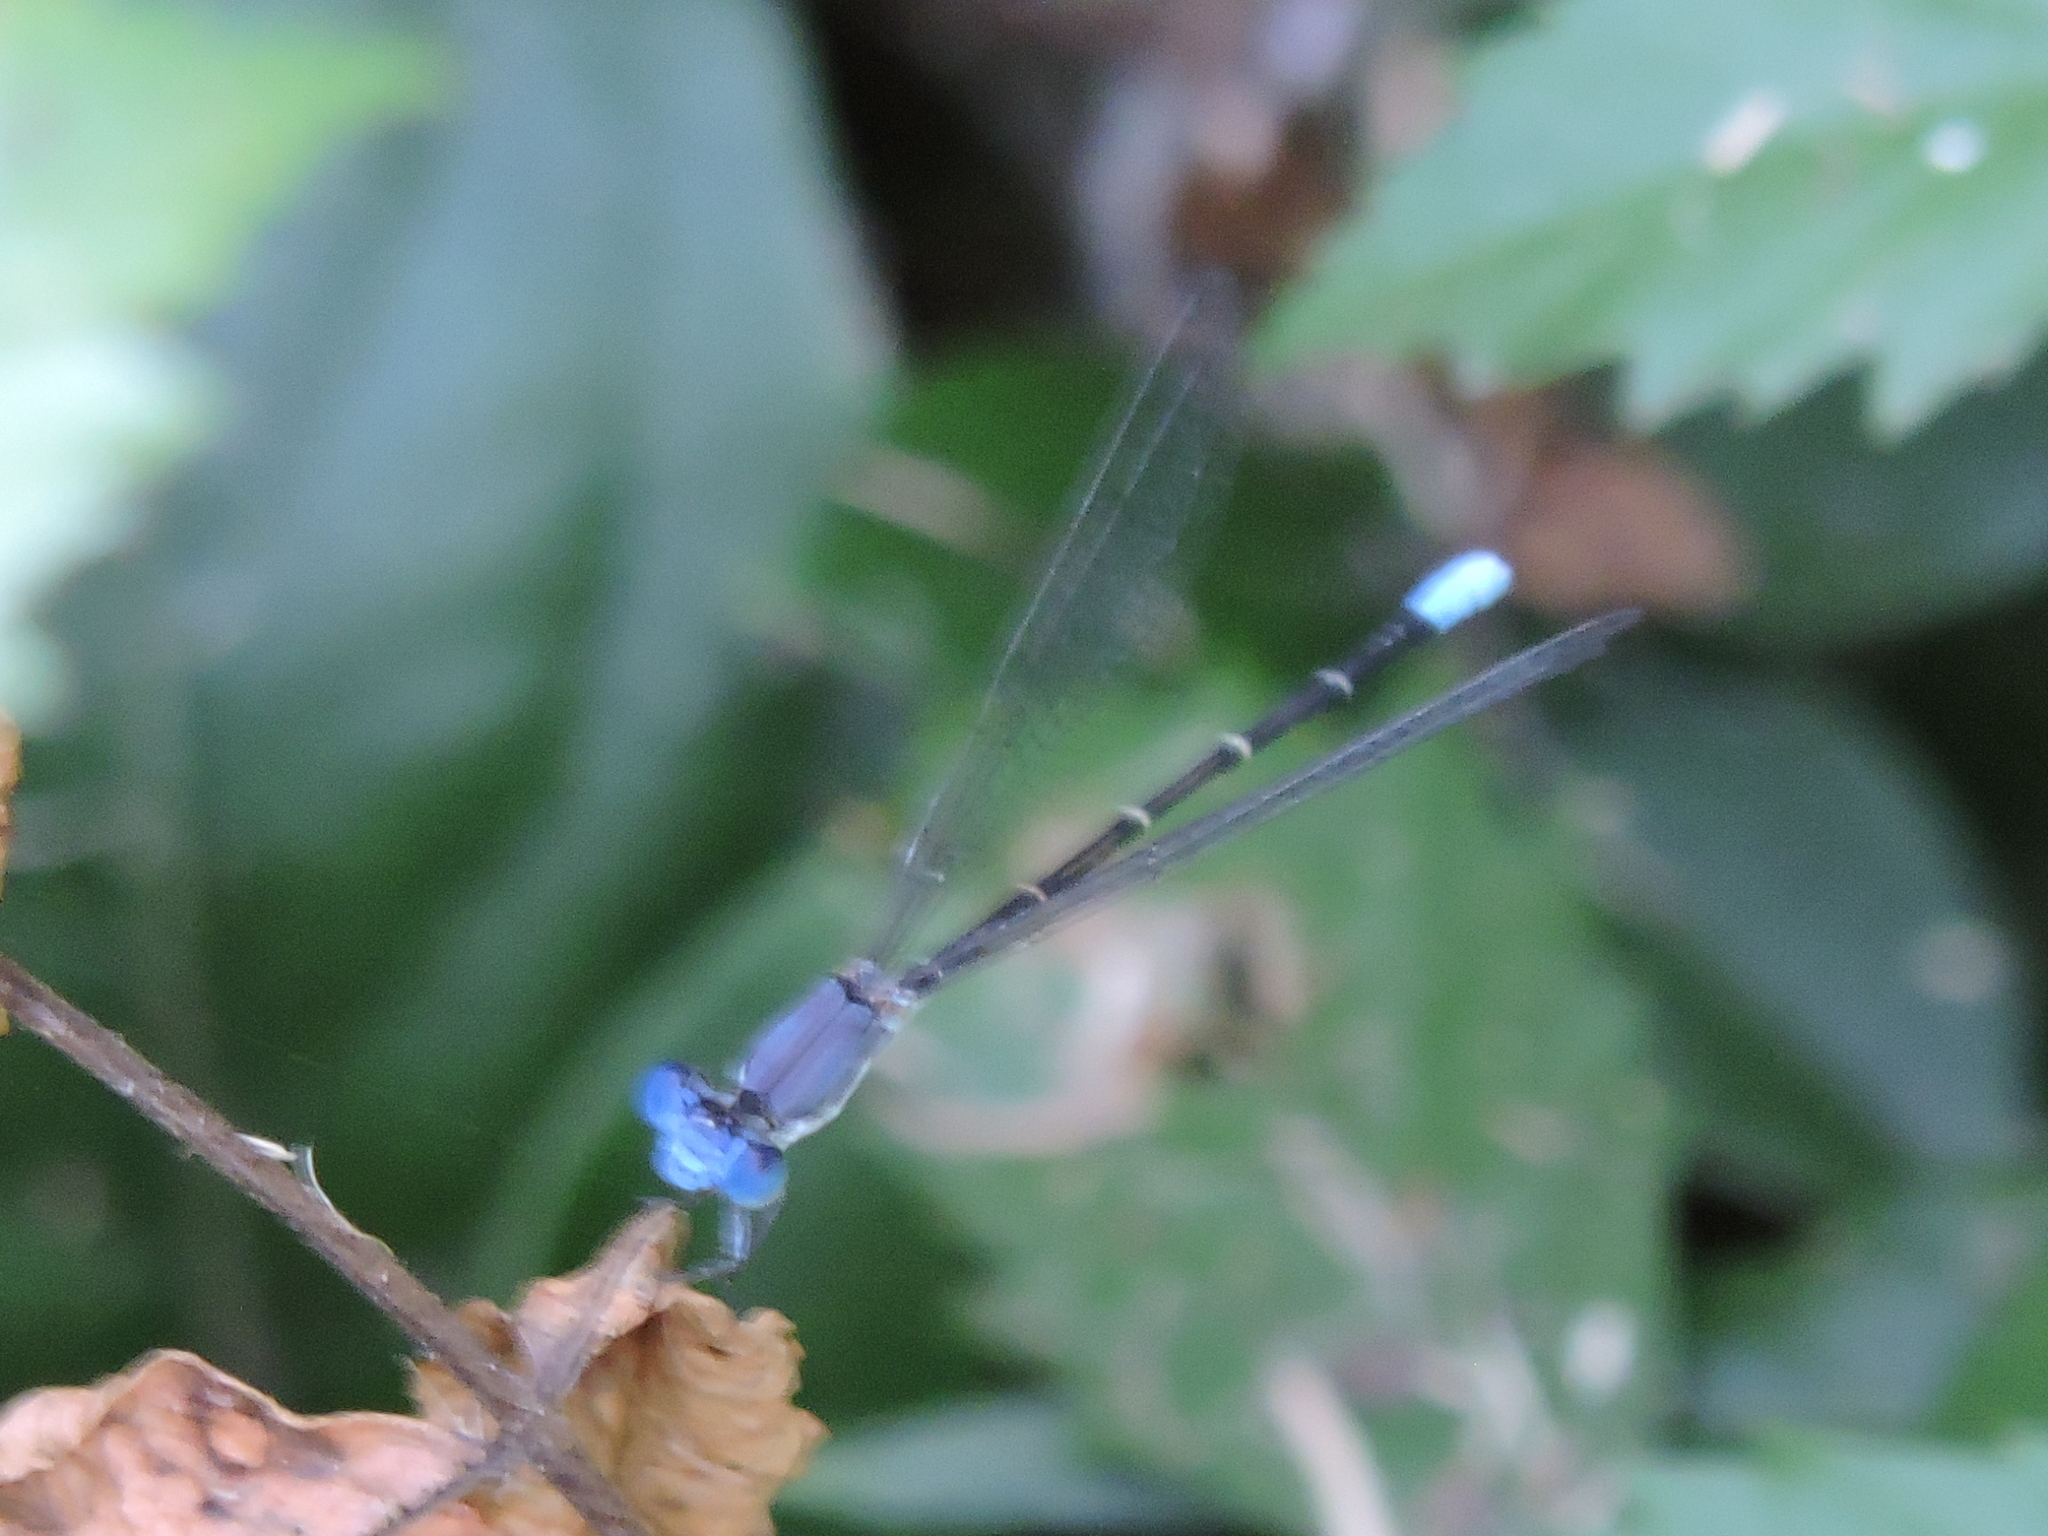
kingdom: Animalia
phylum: Arthropoda
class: Insecta
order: Odonata
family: Coenagrionidae
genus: Argia
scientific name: Argia apicalis
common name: Blue-fronted dancer
